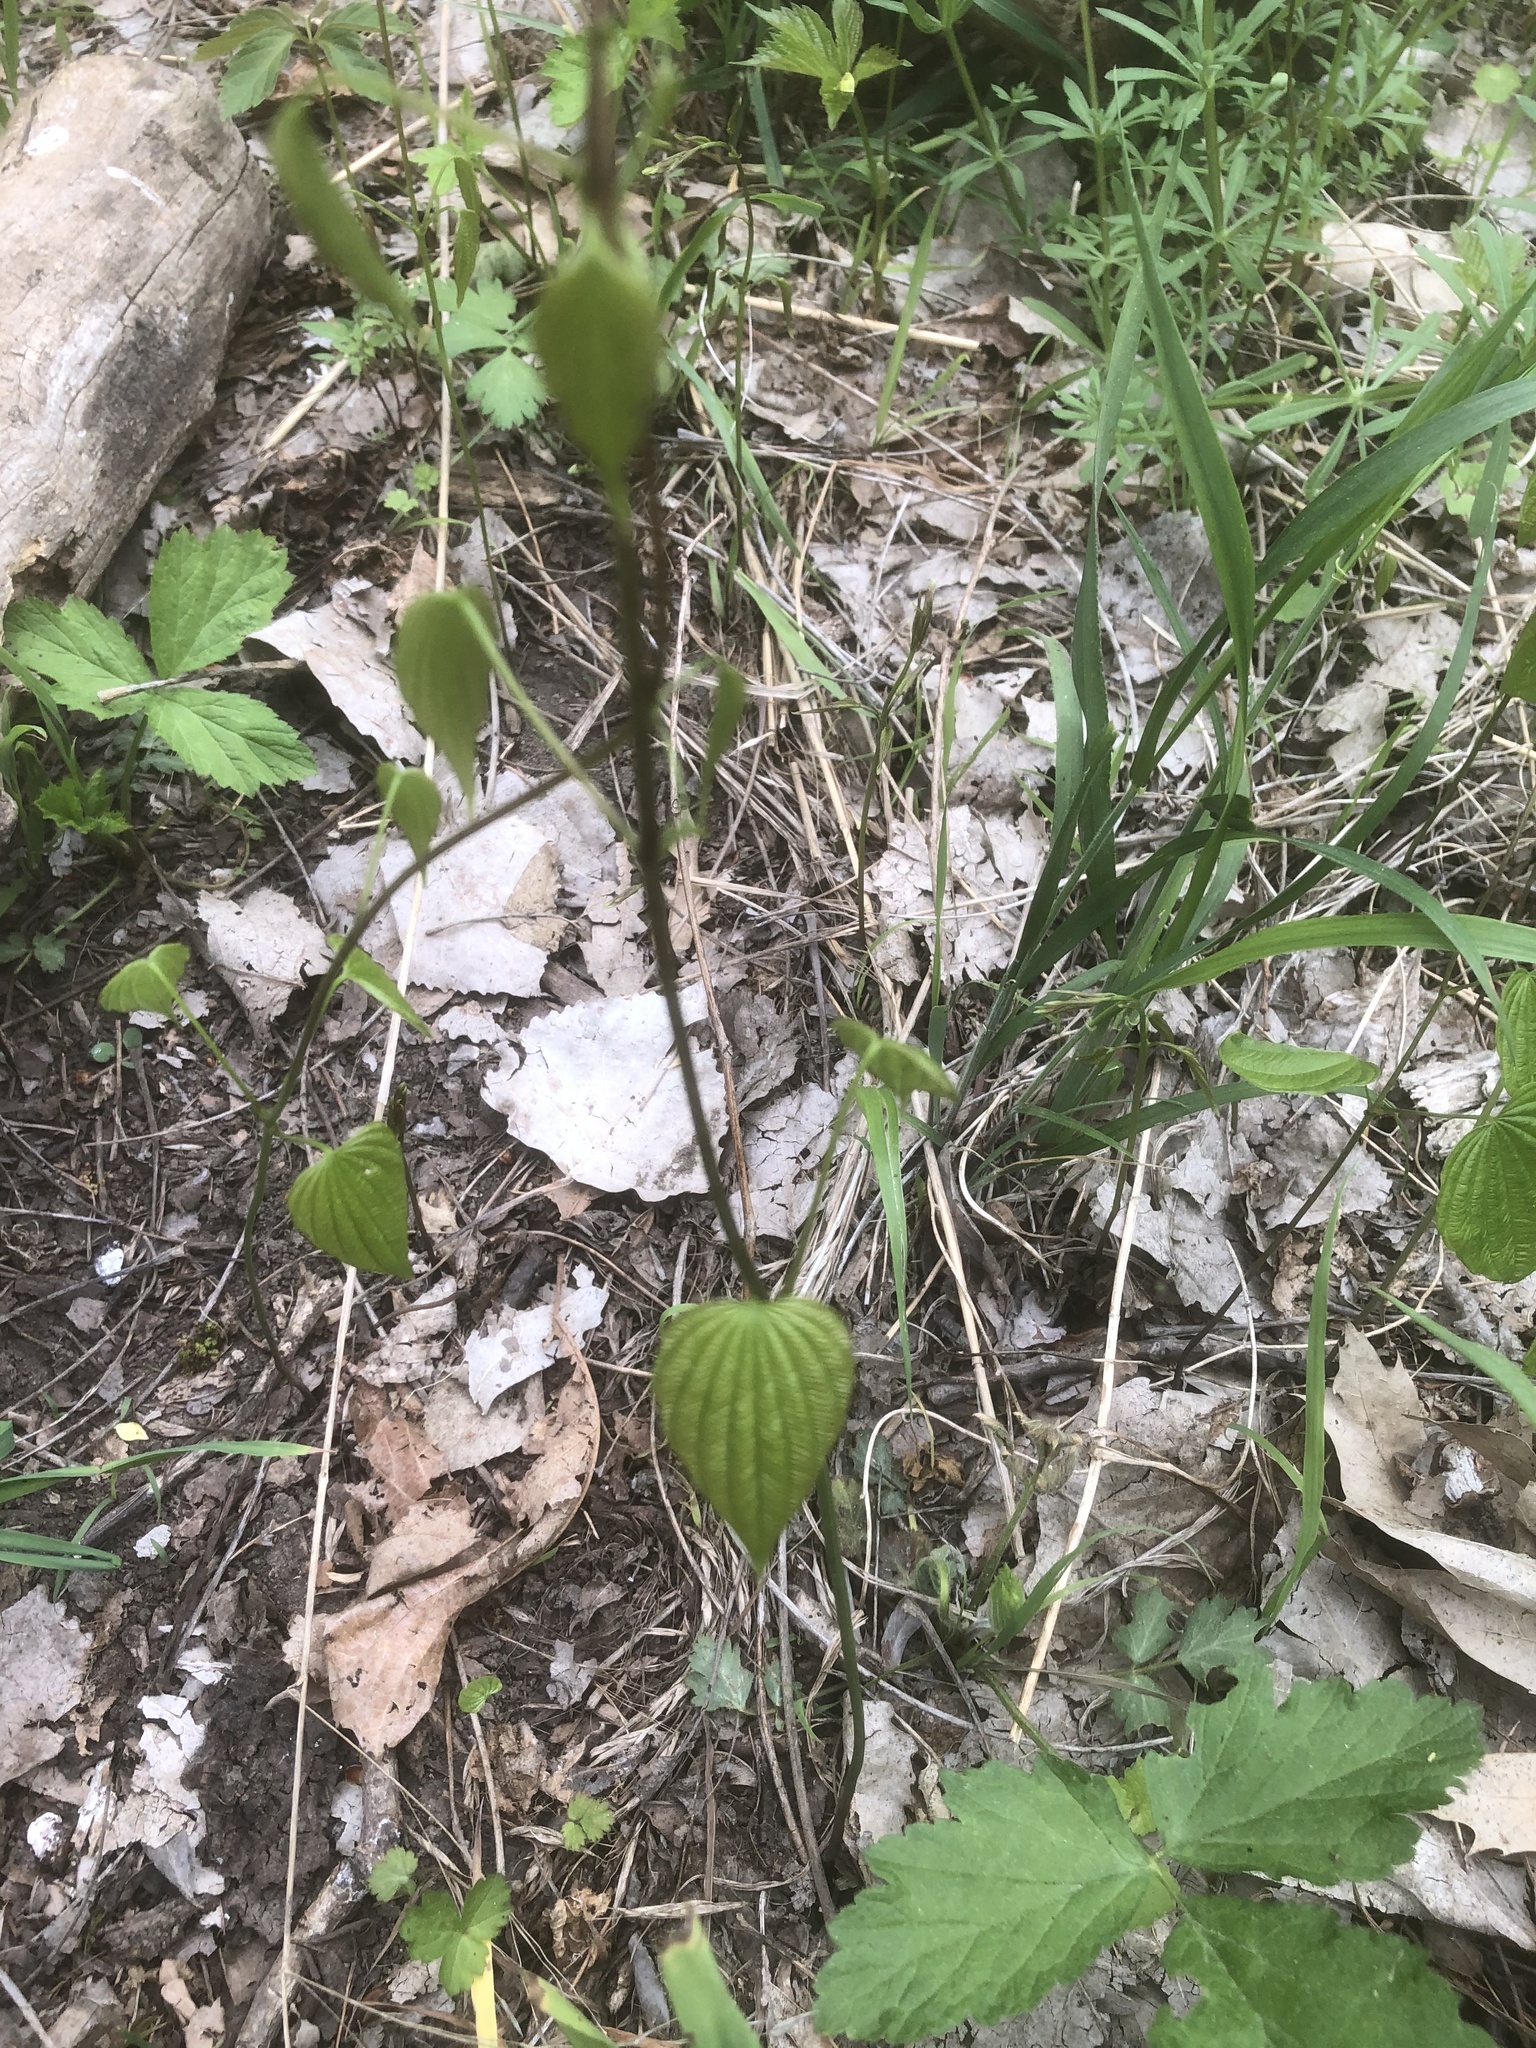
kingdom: Plantae
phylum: Tracheophyta
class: Liliopsida
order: Dioscoreales
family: Dioscoreaceae
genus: Dioscorea
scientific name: Dioscorea villosa
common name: Wild yam
